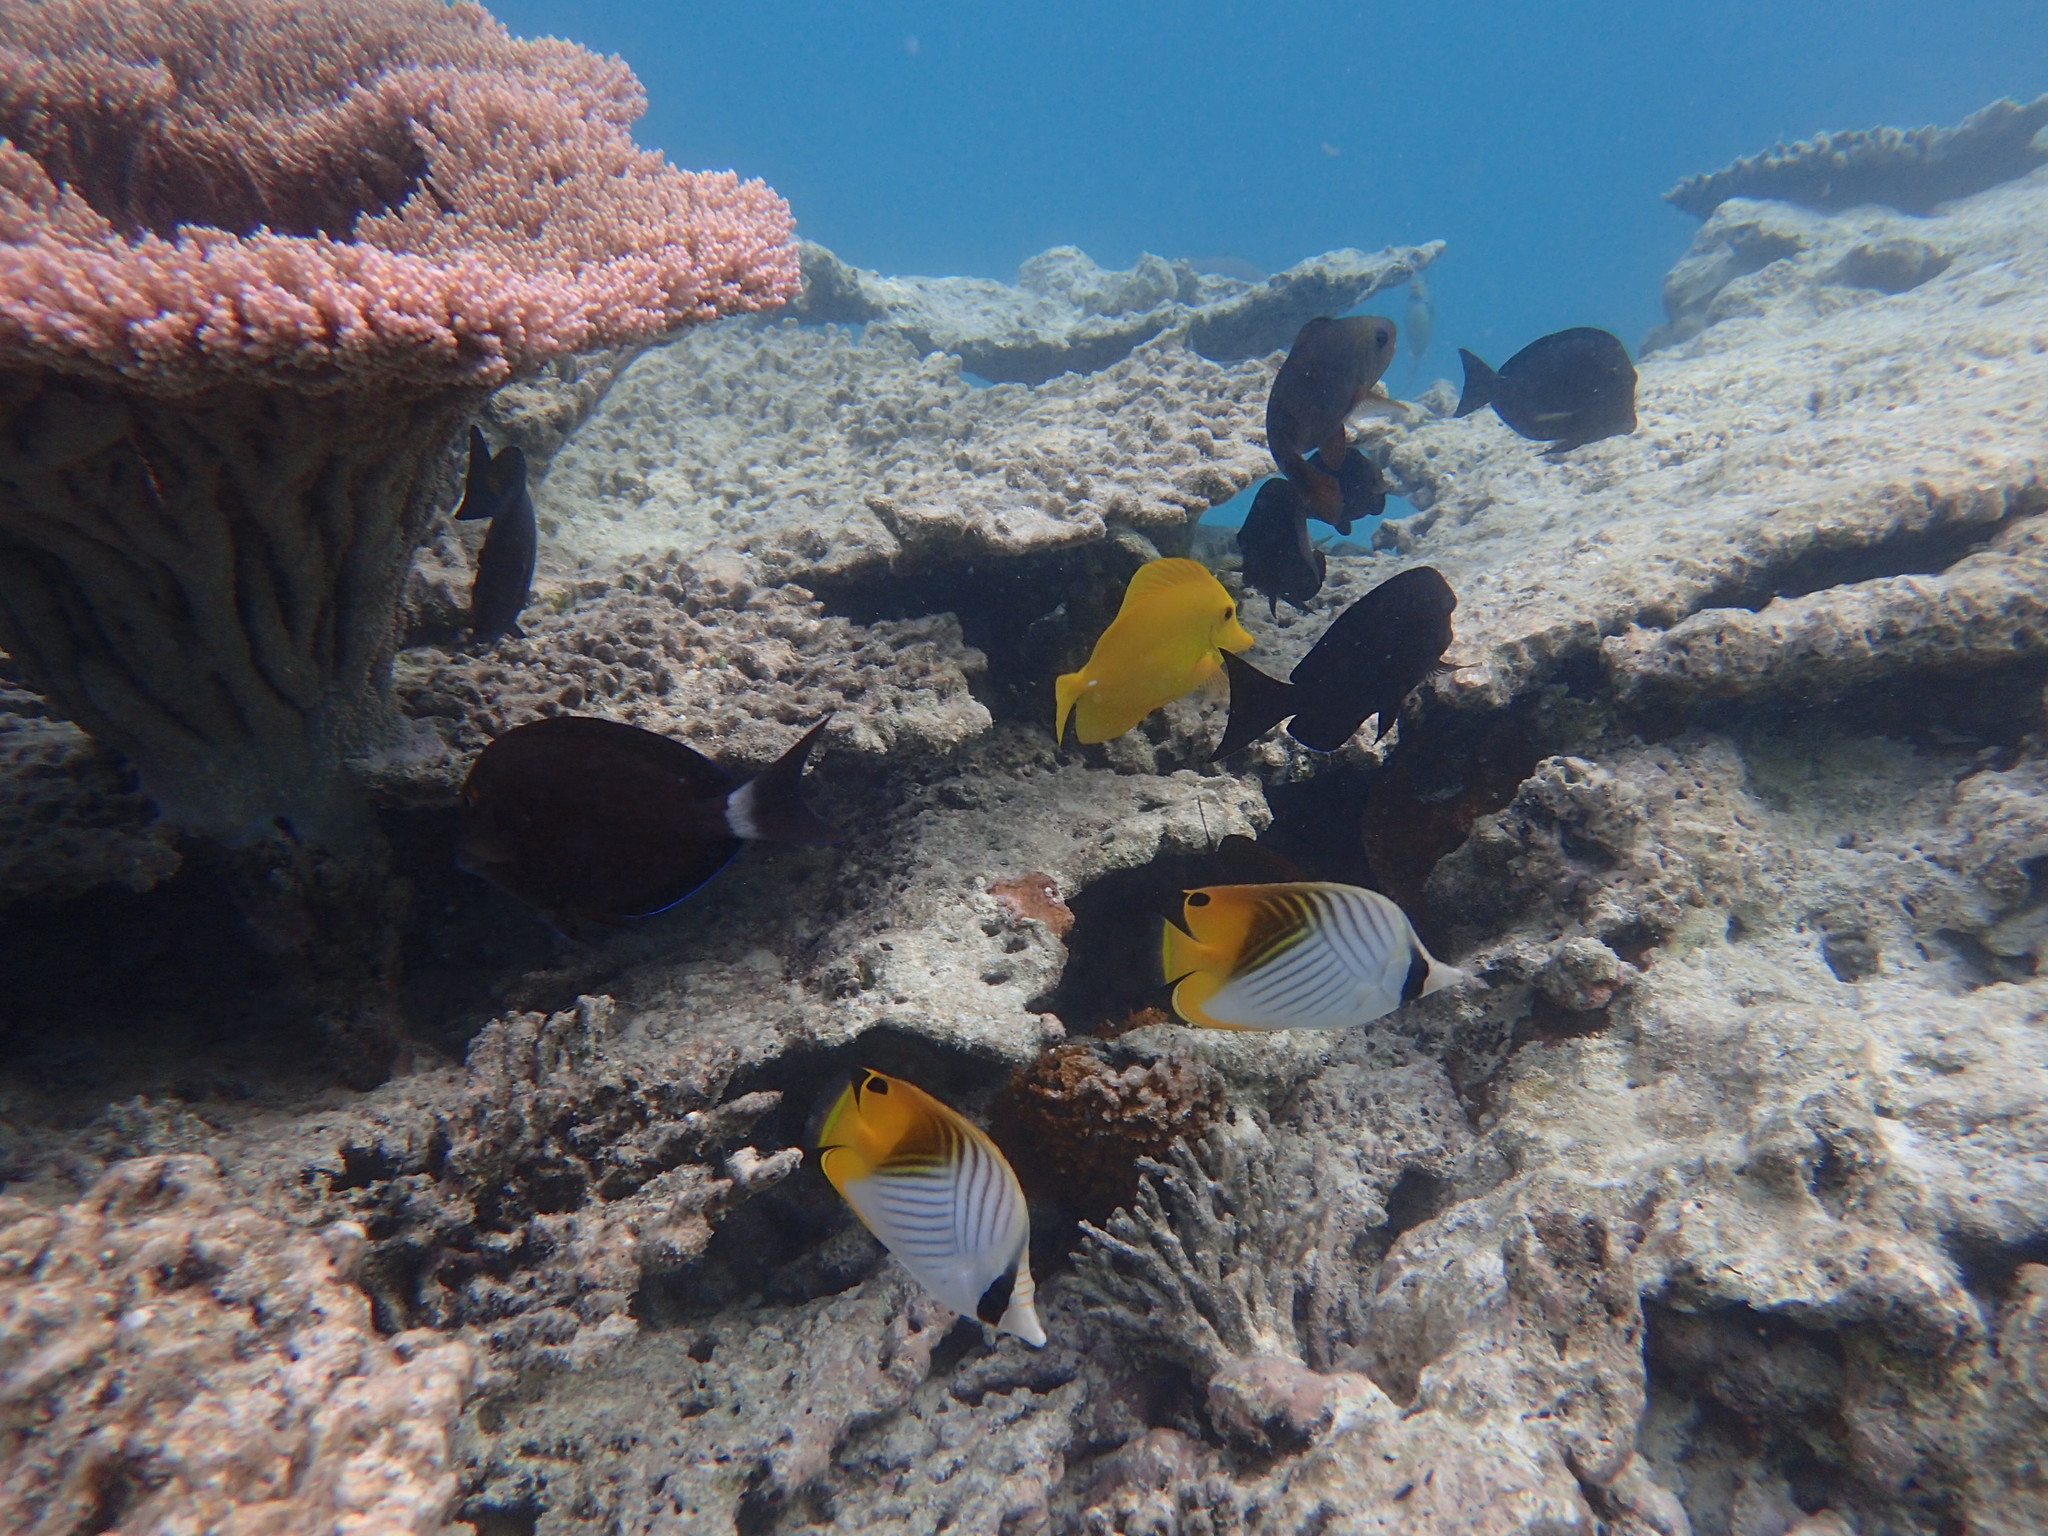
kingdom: Animalia
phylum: Chordata
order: Perciformes
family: Chaetodontidae
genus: Chaetodon
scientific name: Chaetodon auriga
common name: Threadfin butterflyfish
